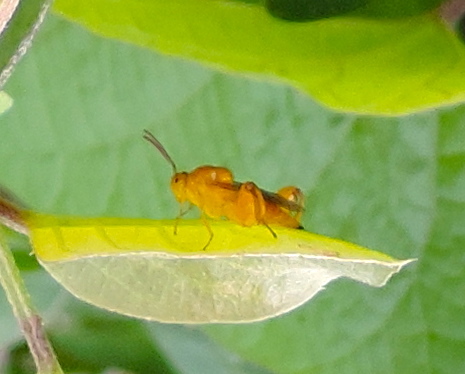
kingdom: Animalia
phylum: Arthropoda
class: Insecta
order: Hymenoptera
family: Chalcididae
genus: Conura
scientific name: Conura
